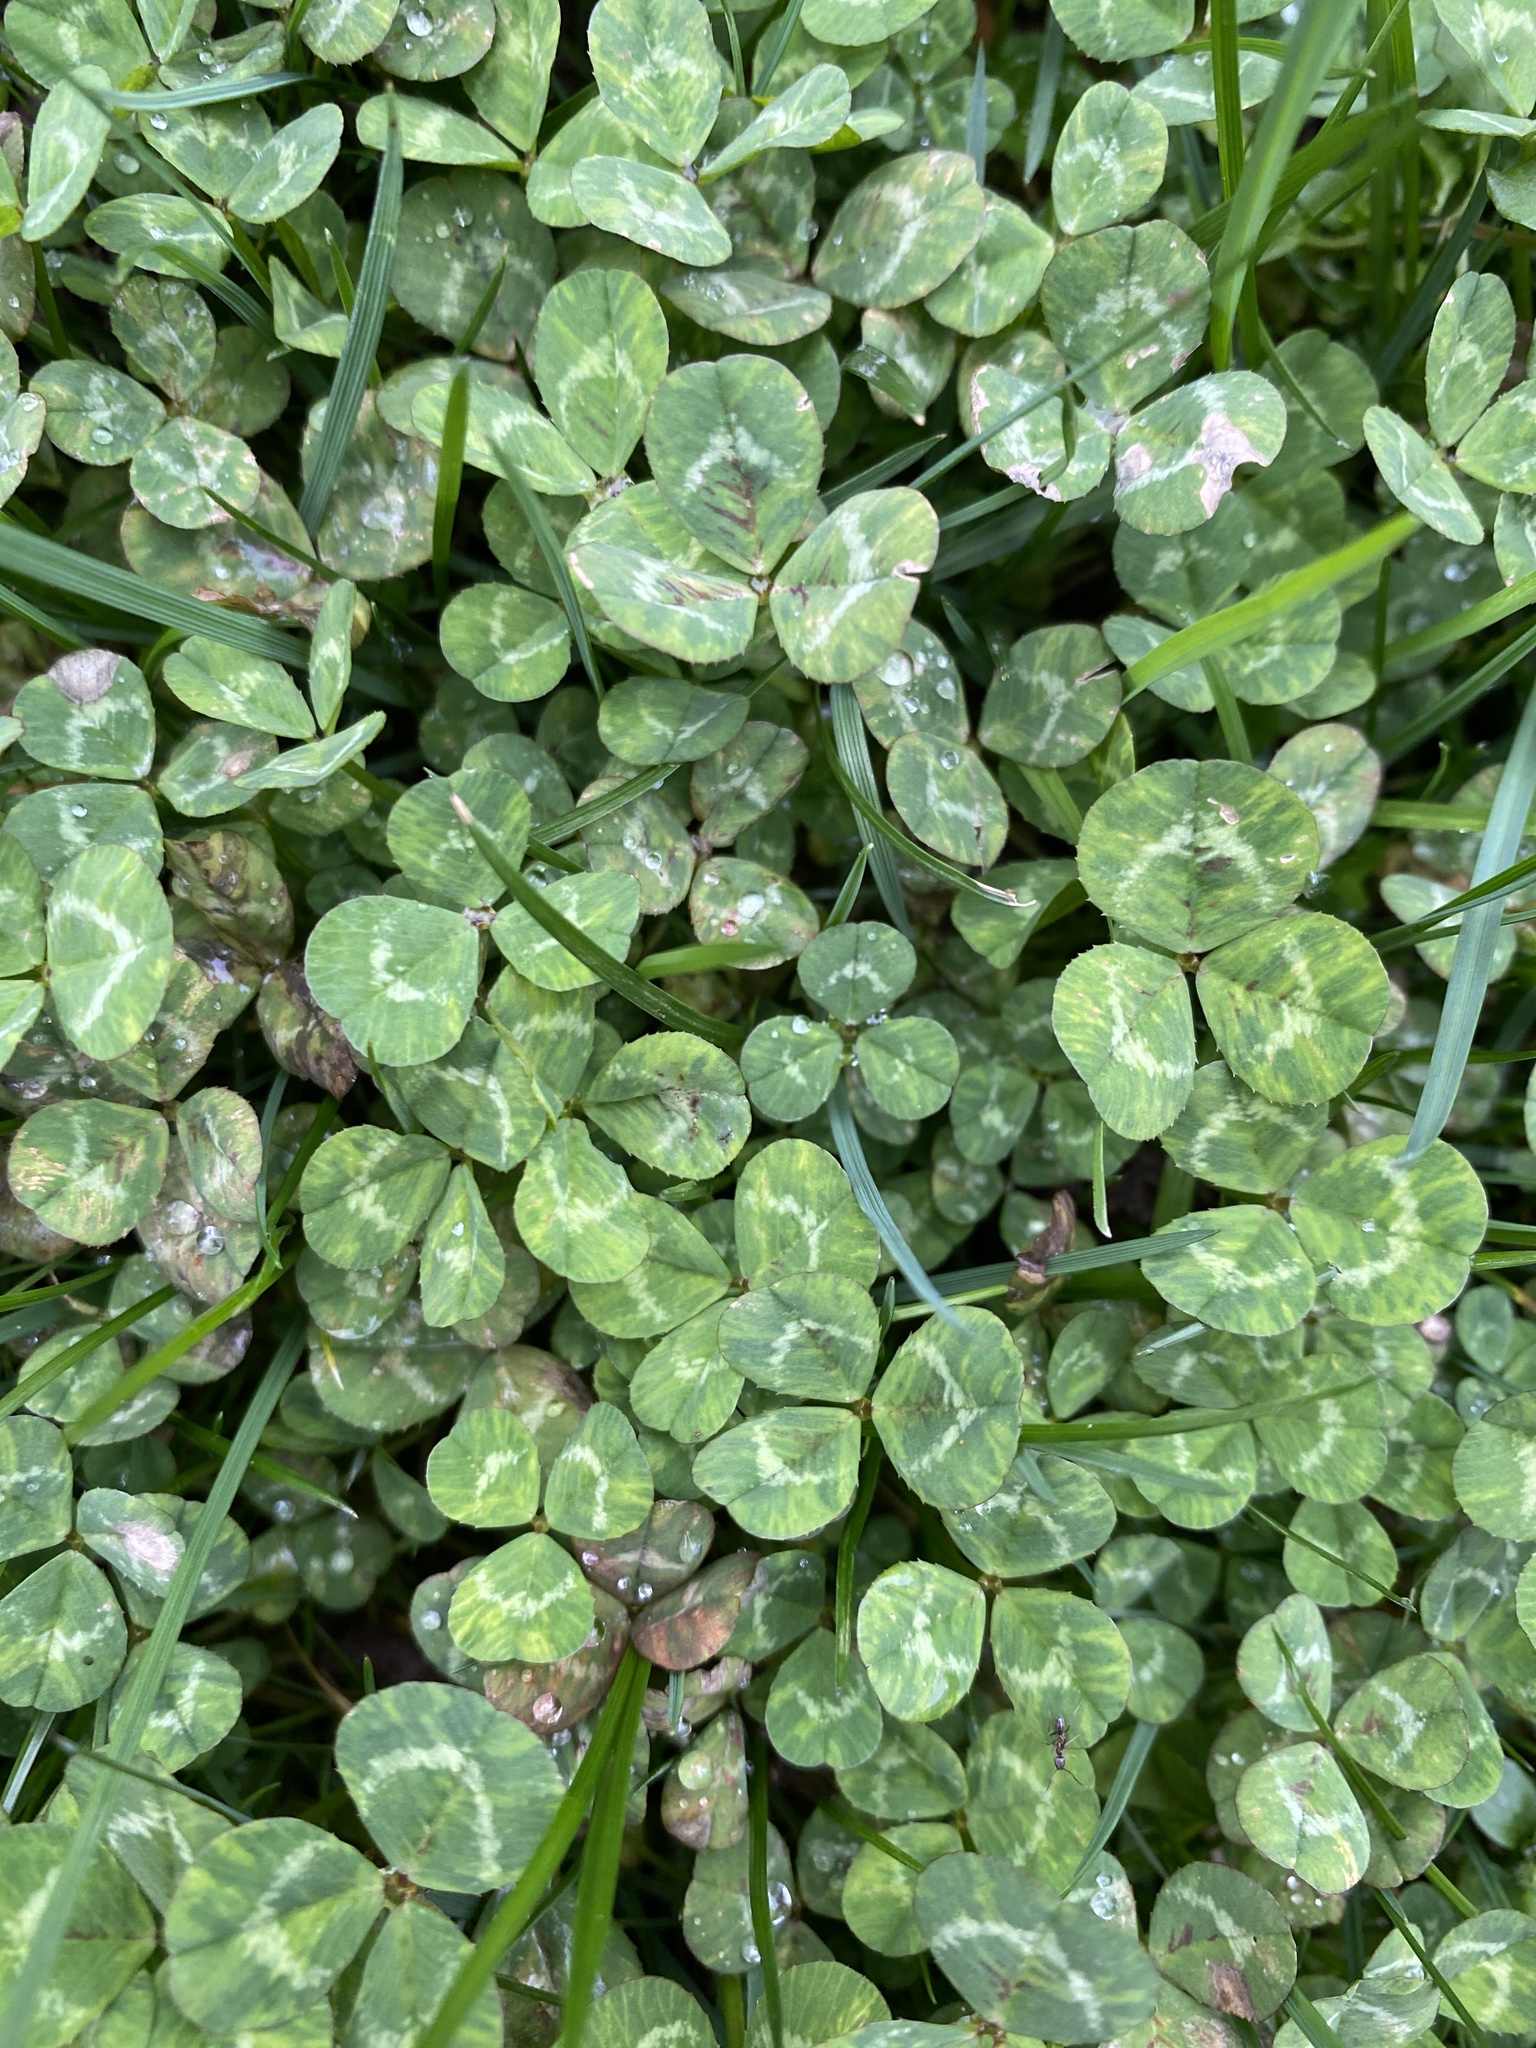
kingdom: Plantae
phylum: Tracheophyta
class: Magnoliopsida
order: Fabales
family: Fabaceae
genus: Trifolium
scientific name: Trifolium repens
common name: White clover
